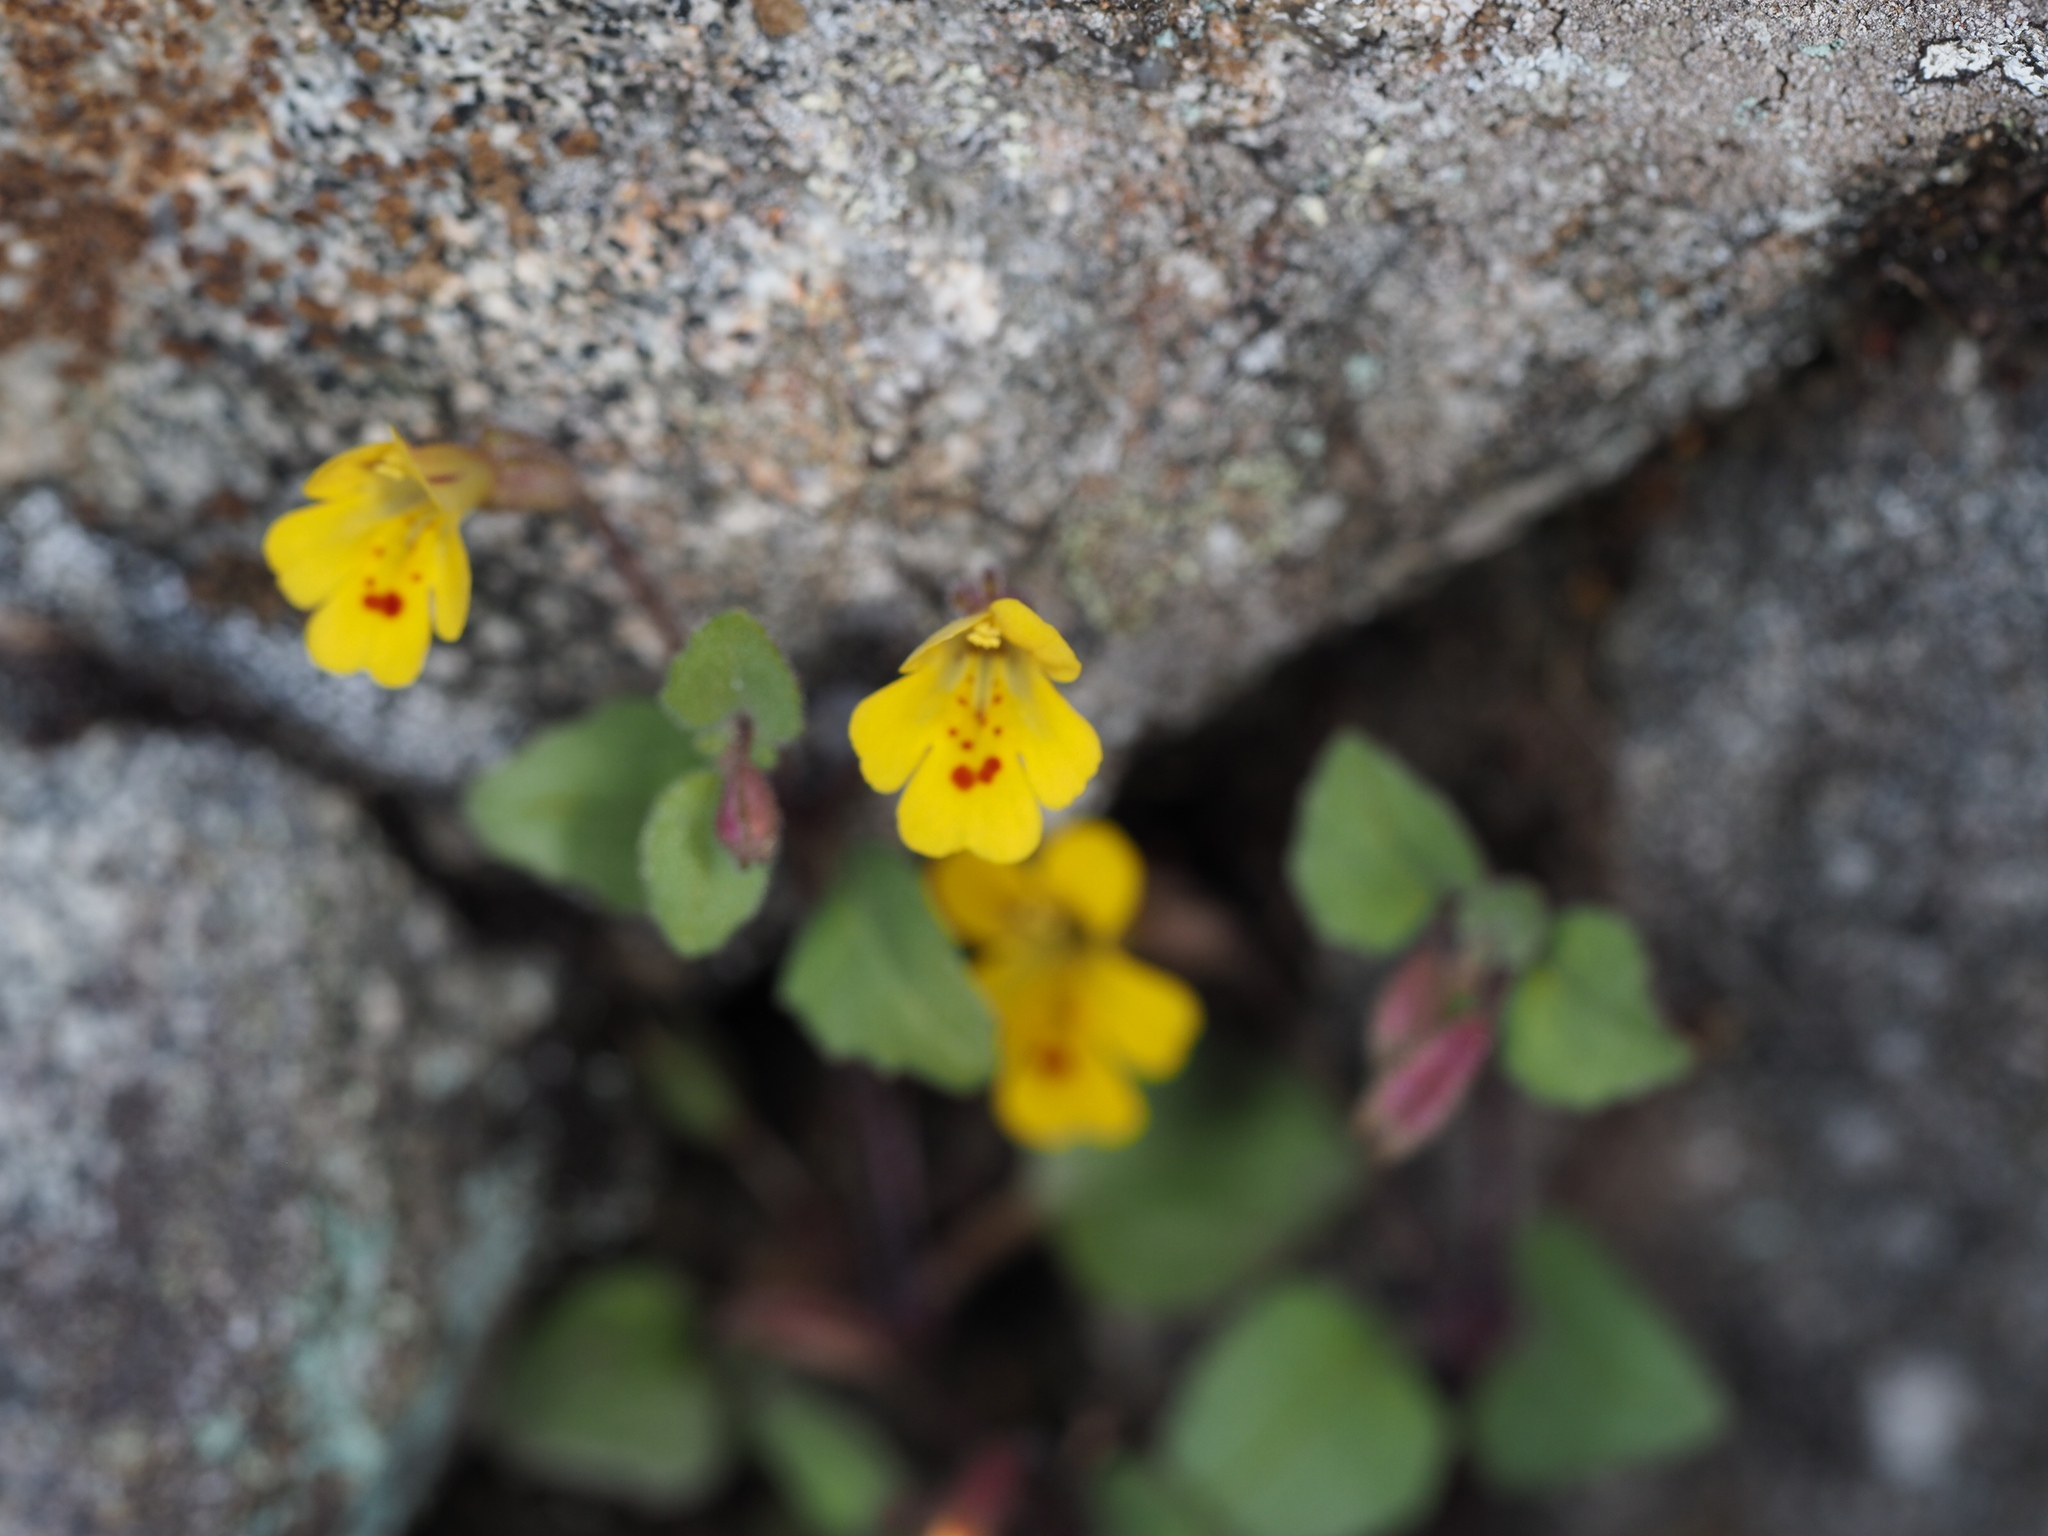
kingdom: Plantae
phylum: Tracheophyta
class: Magnoliopsida
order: Lamiales
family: Phrymaceae
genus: Erythranthe
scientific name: Erythranthe alsinoides
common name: Chickweed monkeyflower
